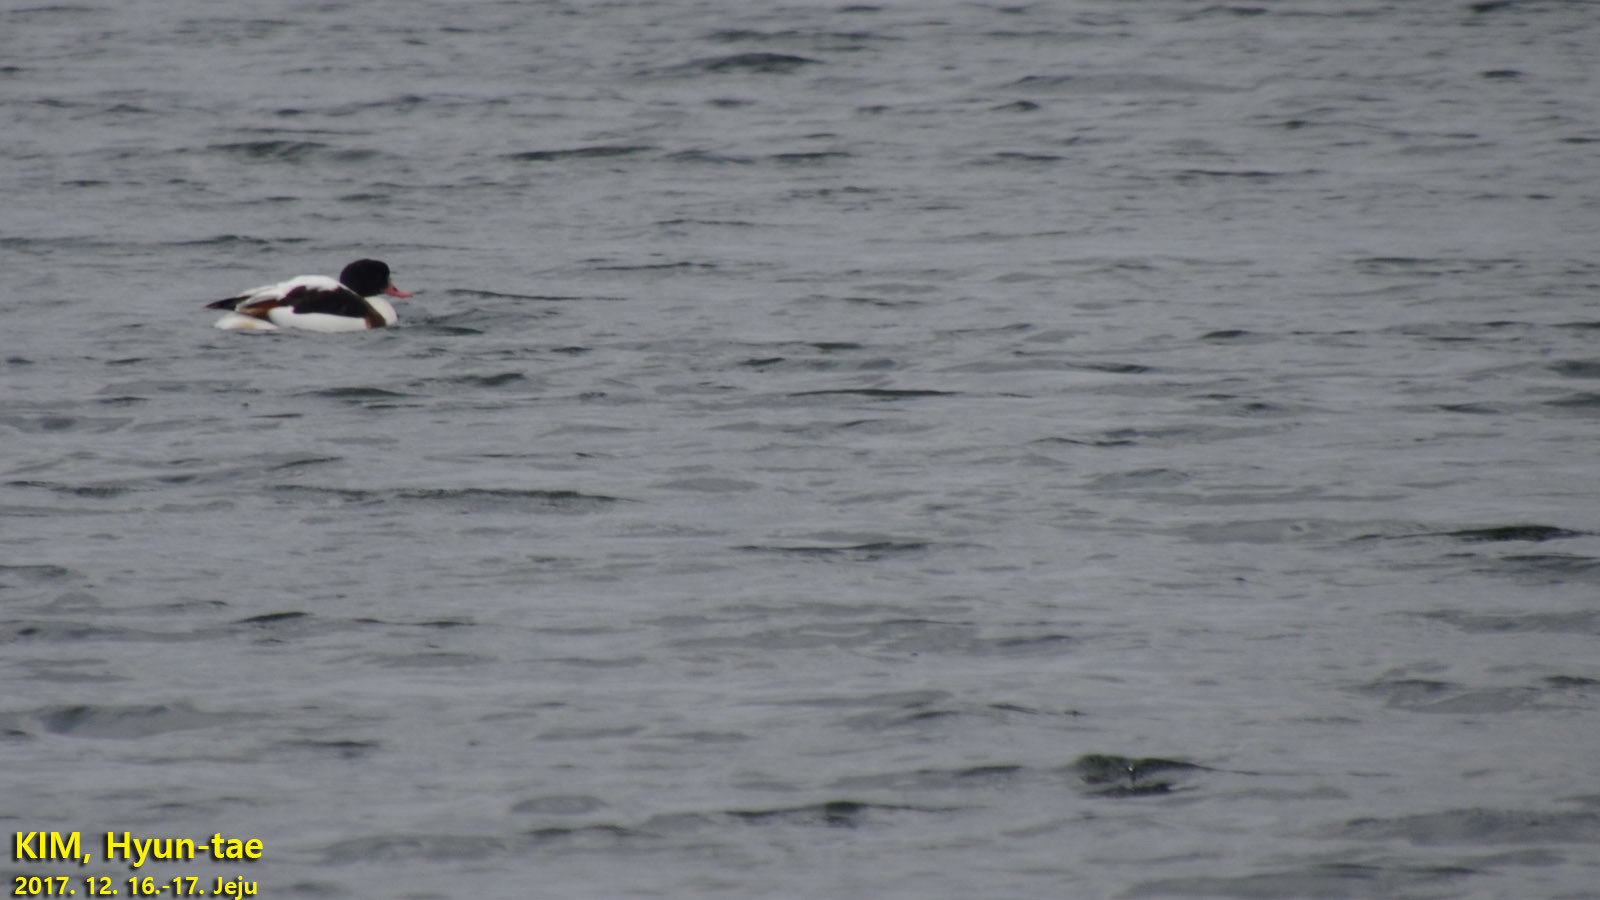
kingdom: Animalia
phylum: Chordata
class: Aves
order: Anseriformes
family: Anatidae
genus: Tadorna
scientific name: Tadorna tadorna
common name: Common shelduck
